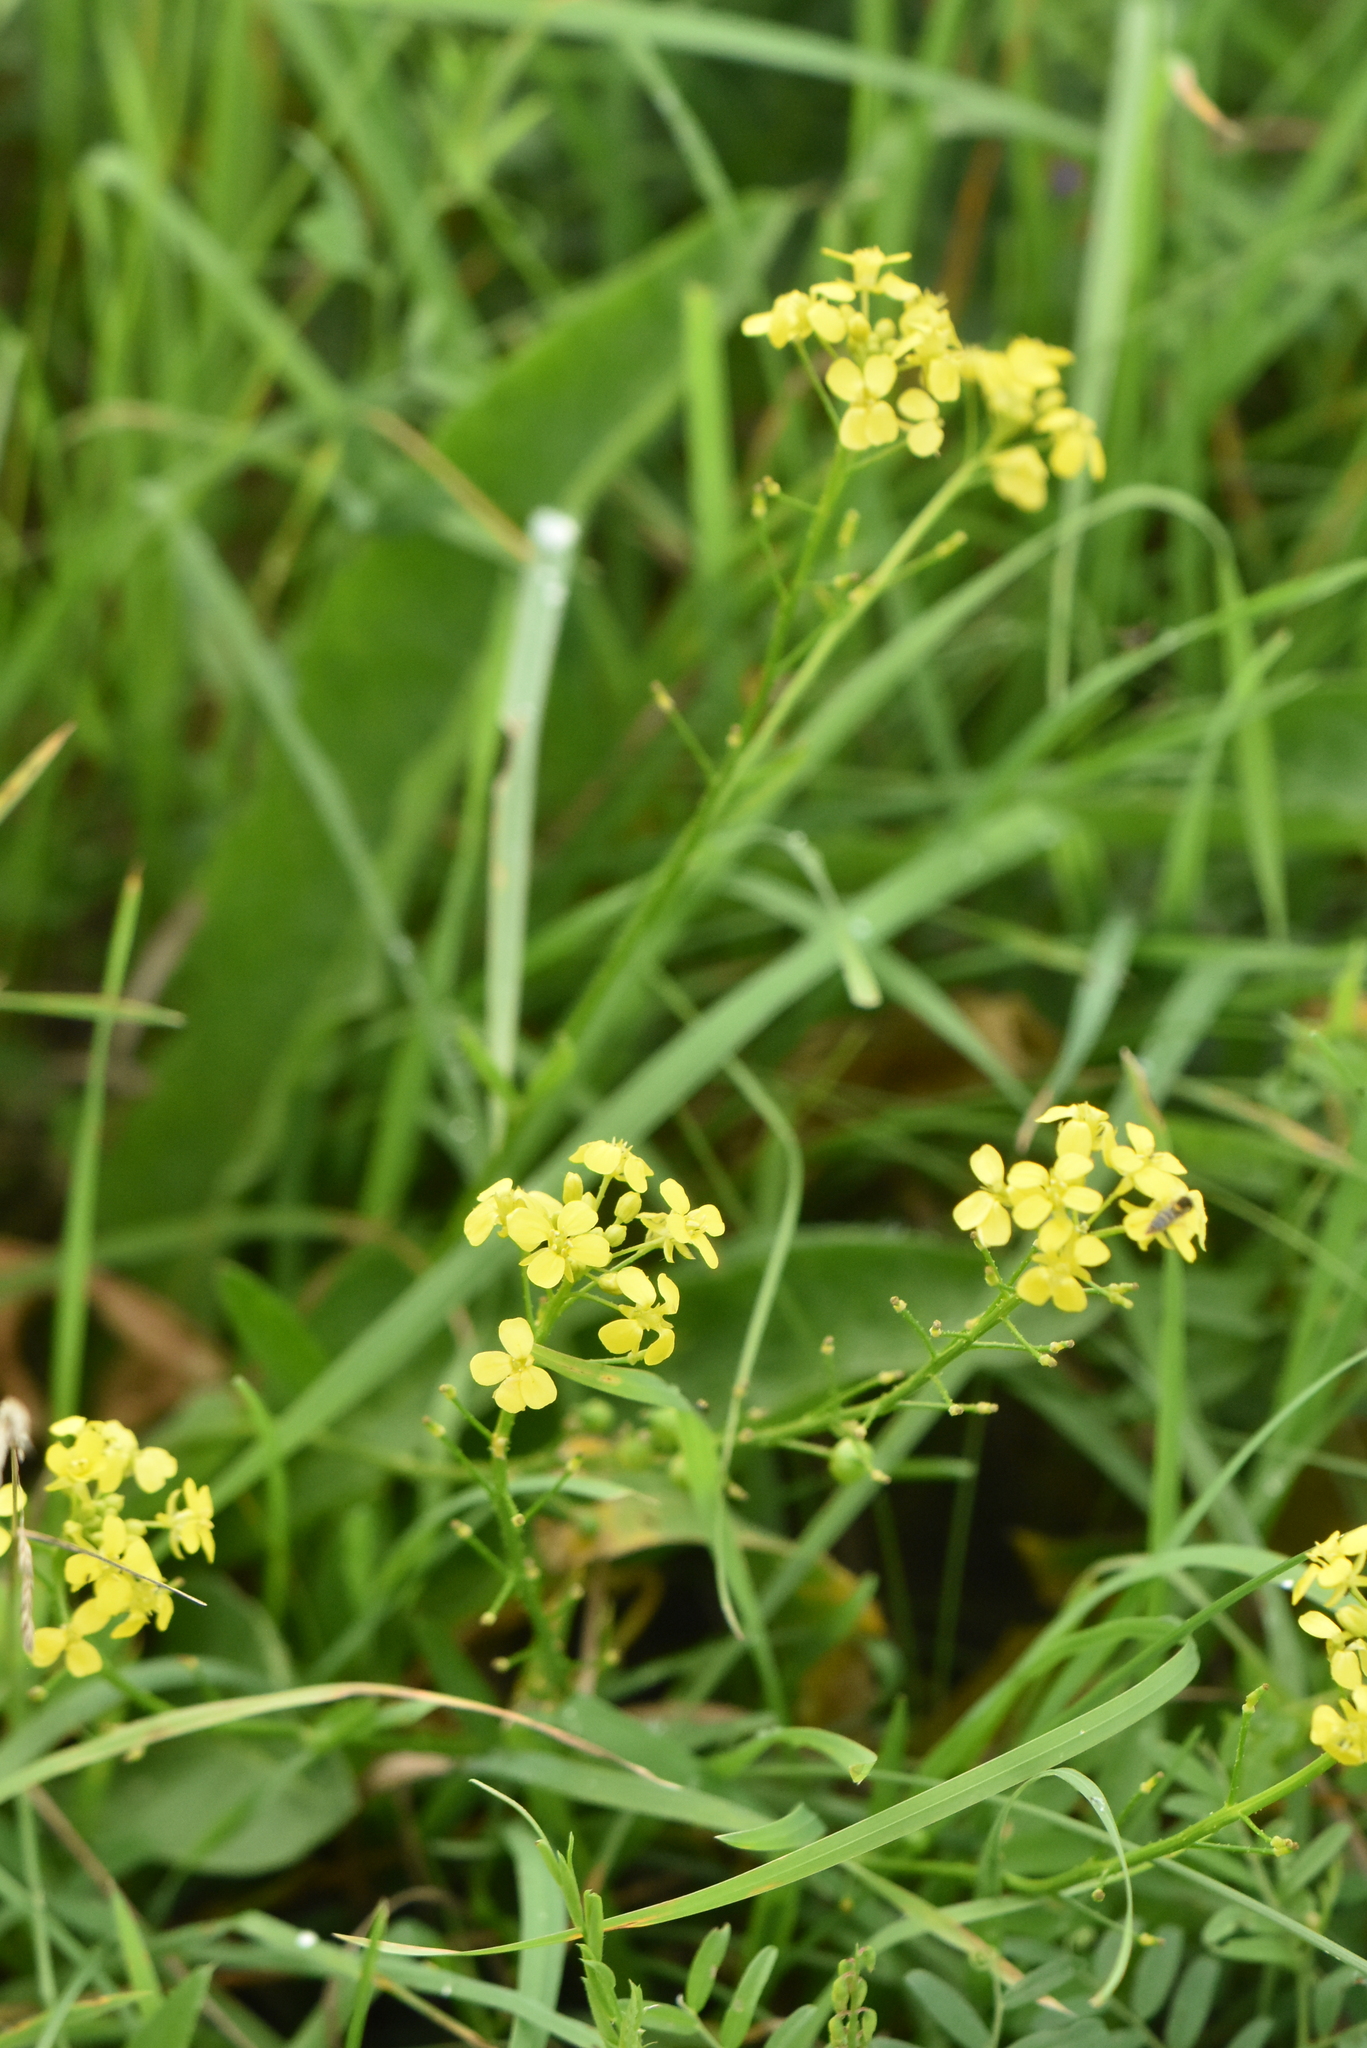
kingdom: Plantae
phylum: Tracheophyta
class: Magnoliopsida
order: Brassicales
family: Brassicaceae
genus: Bunias
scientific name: Bunias orientalis
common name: Warty-cabbage
